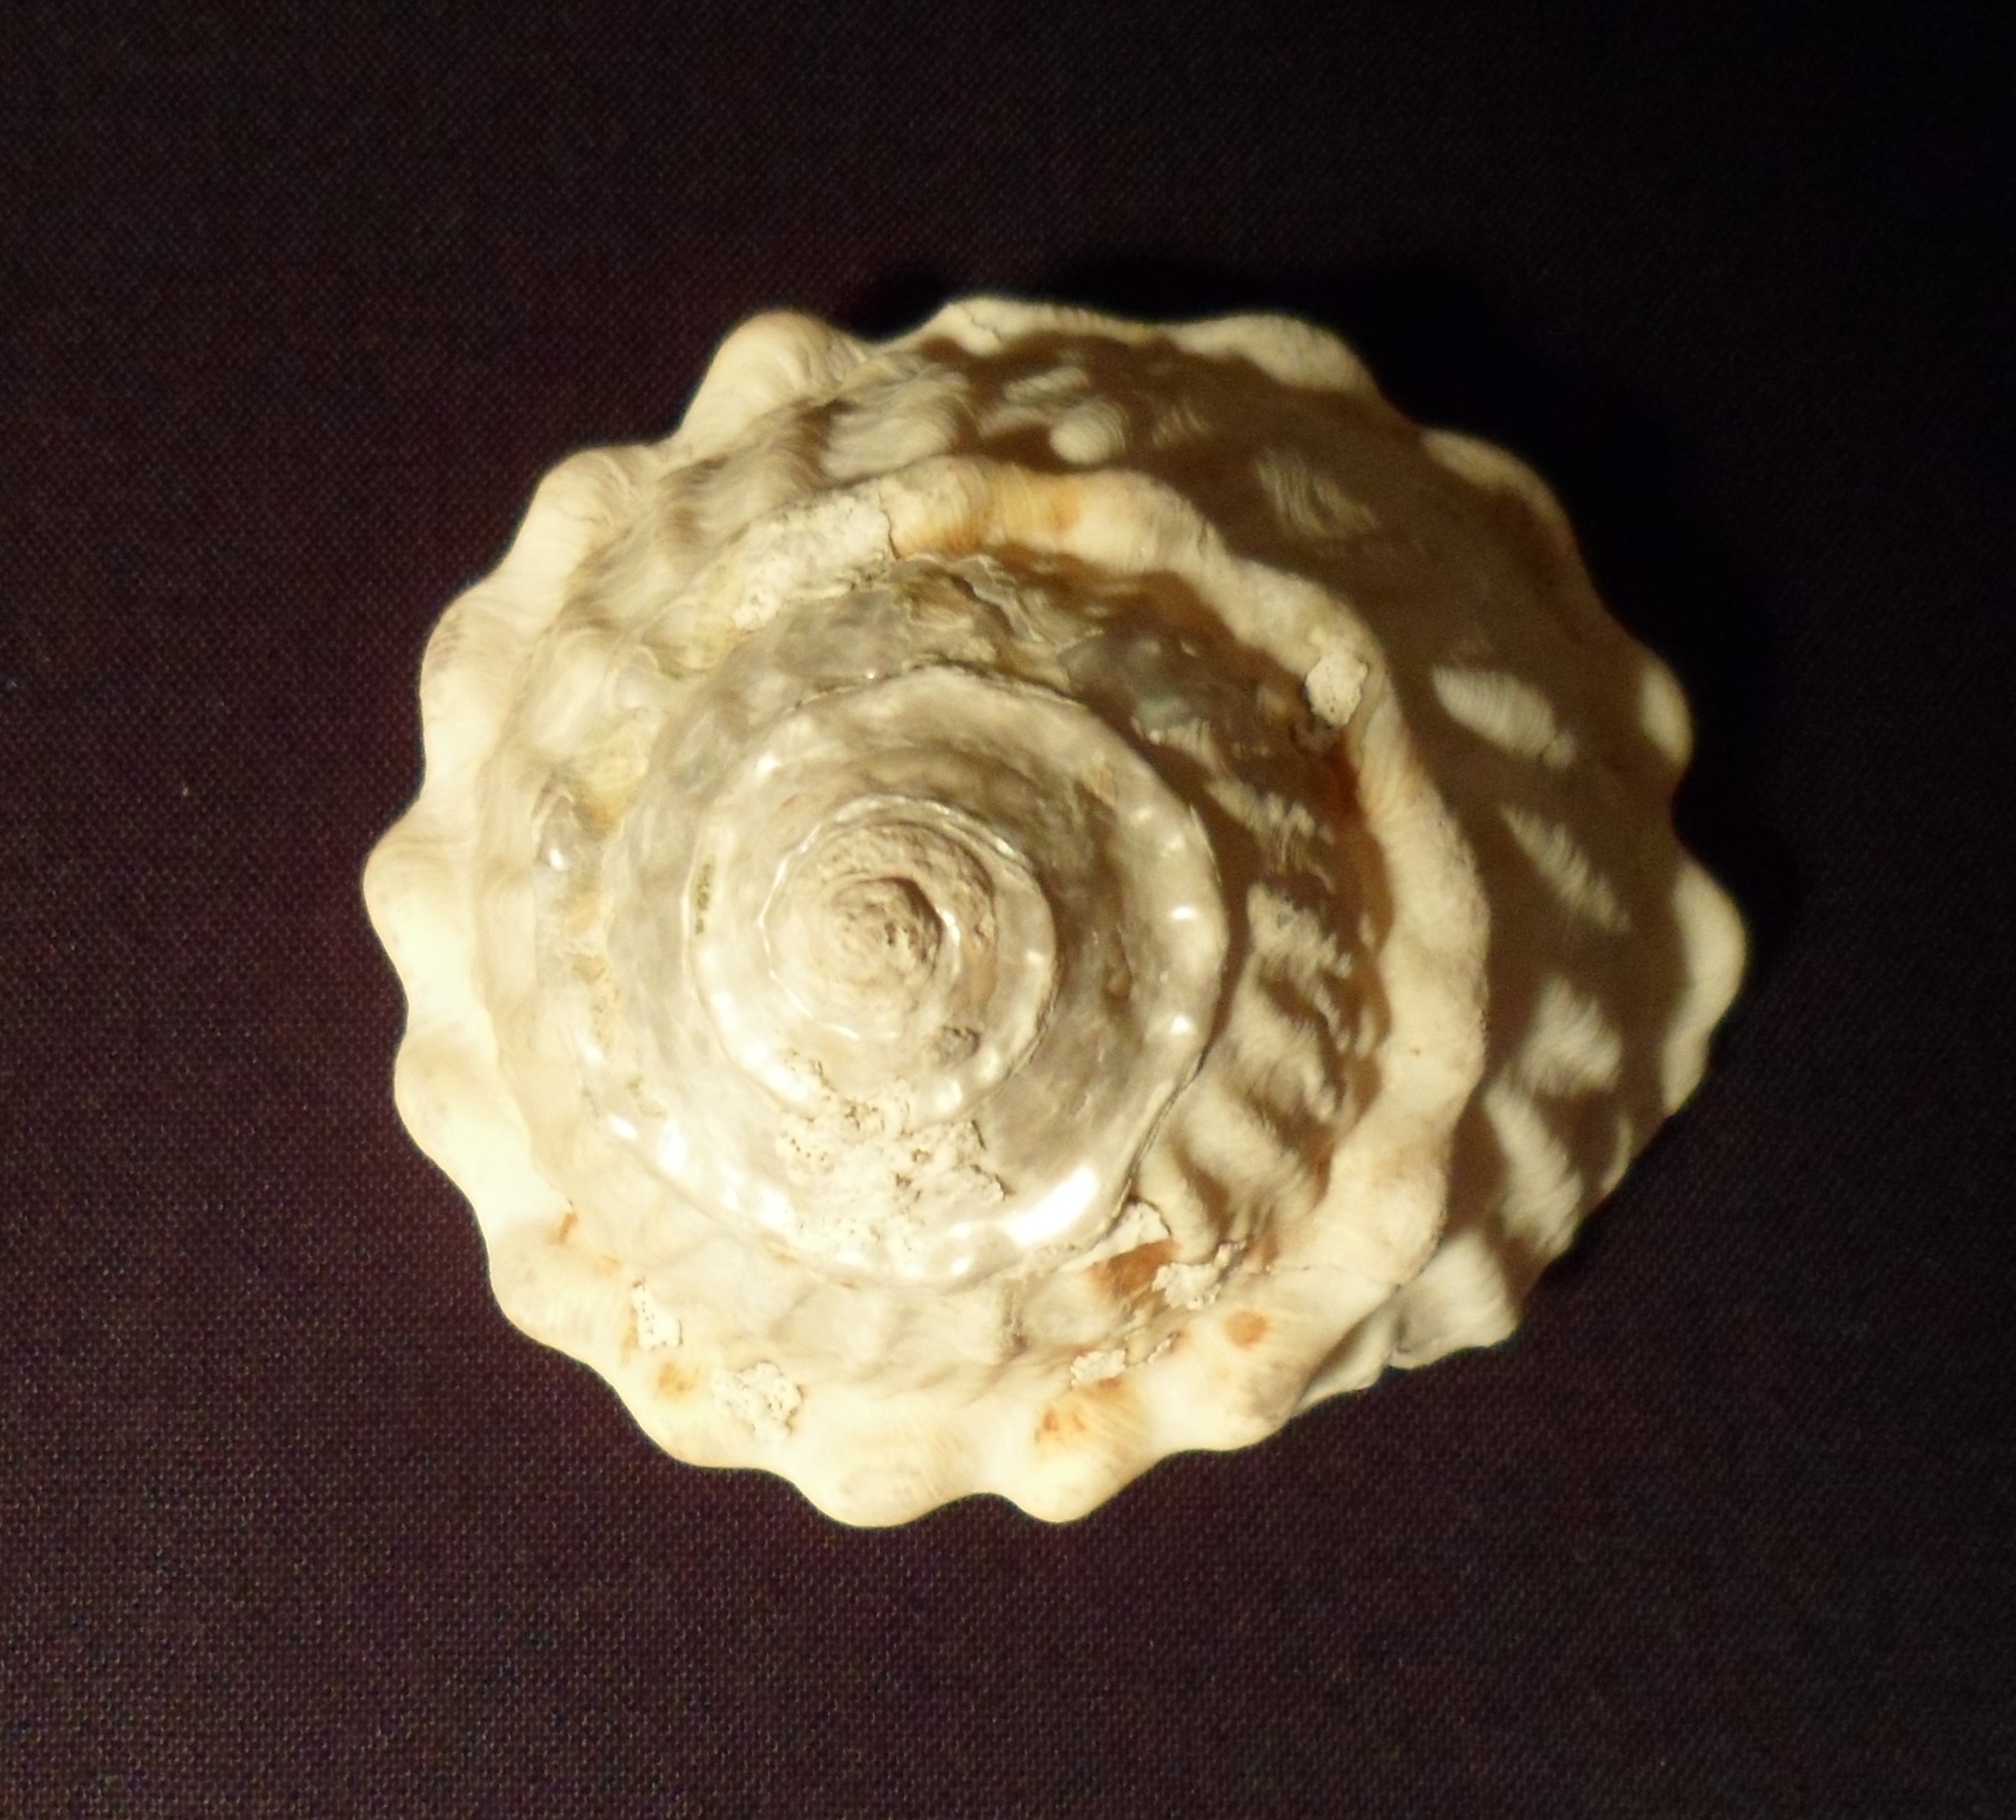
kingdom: Animalia
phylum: Mollusca
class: Gastropoda
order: Trochida
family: Turbinidae
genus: Megastraea
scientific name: Megastraea undosa
